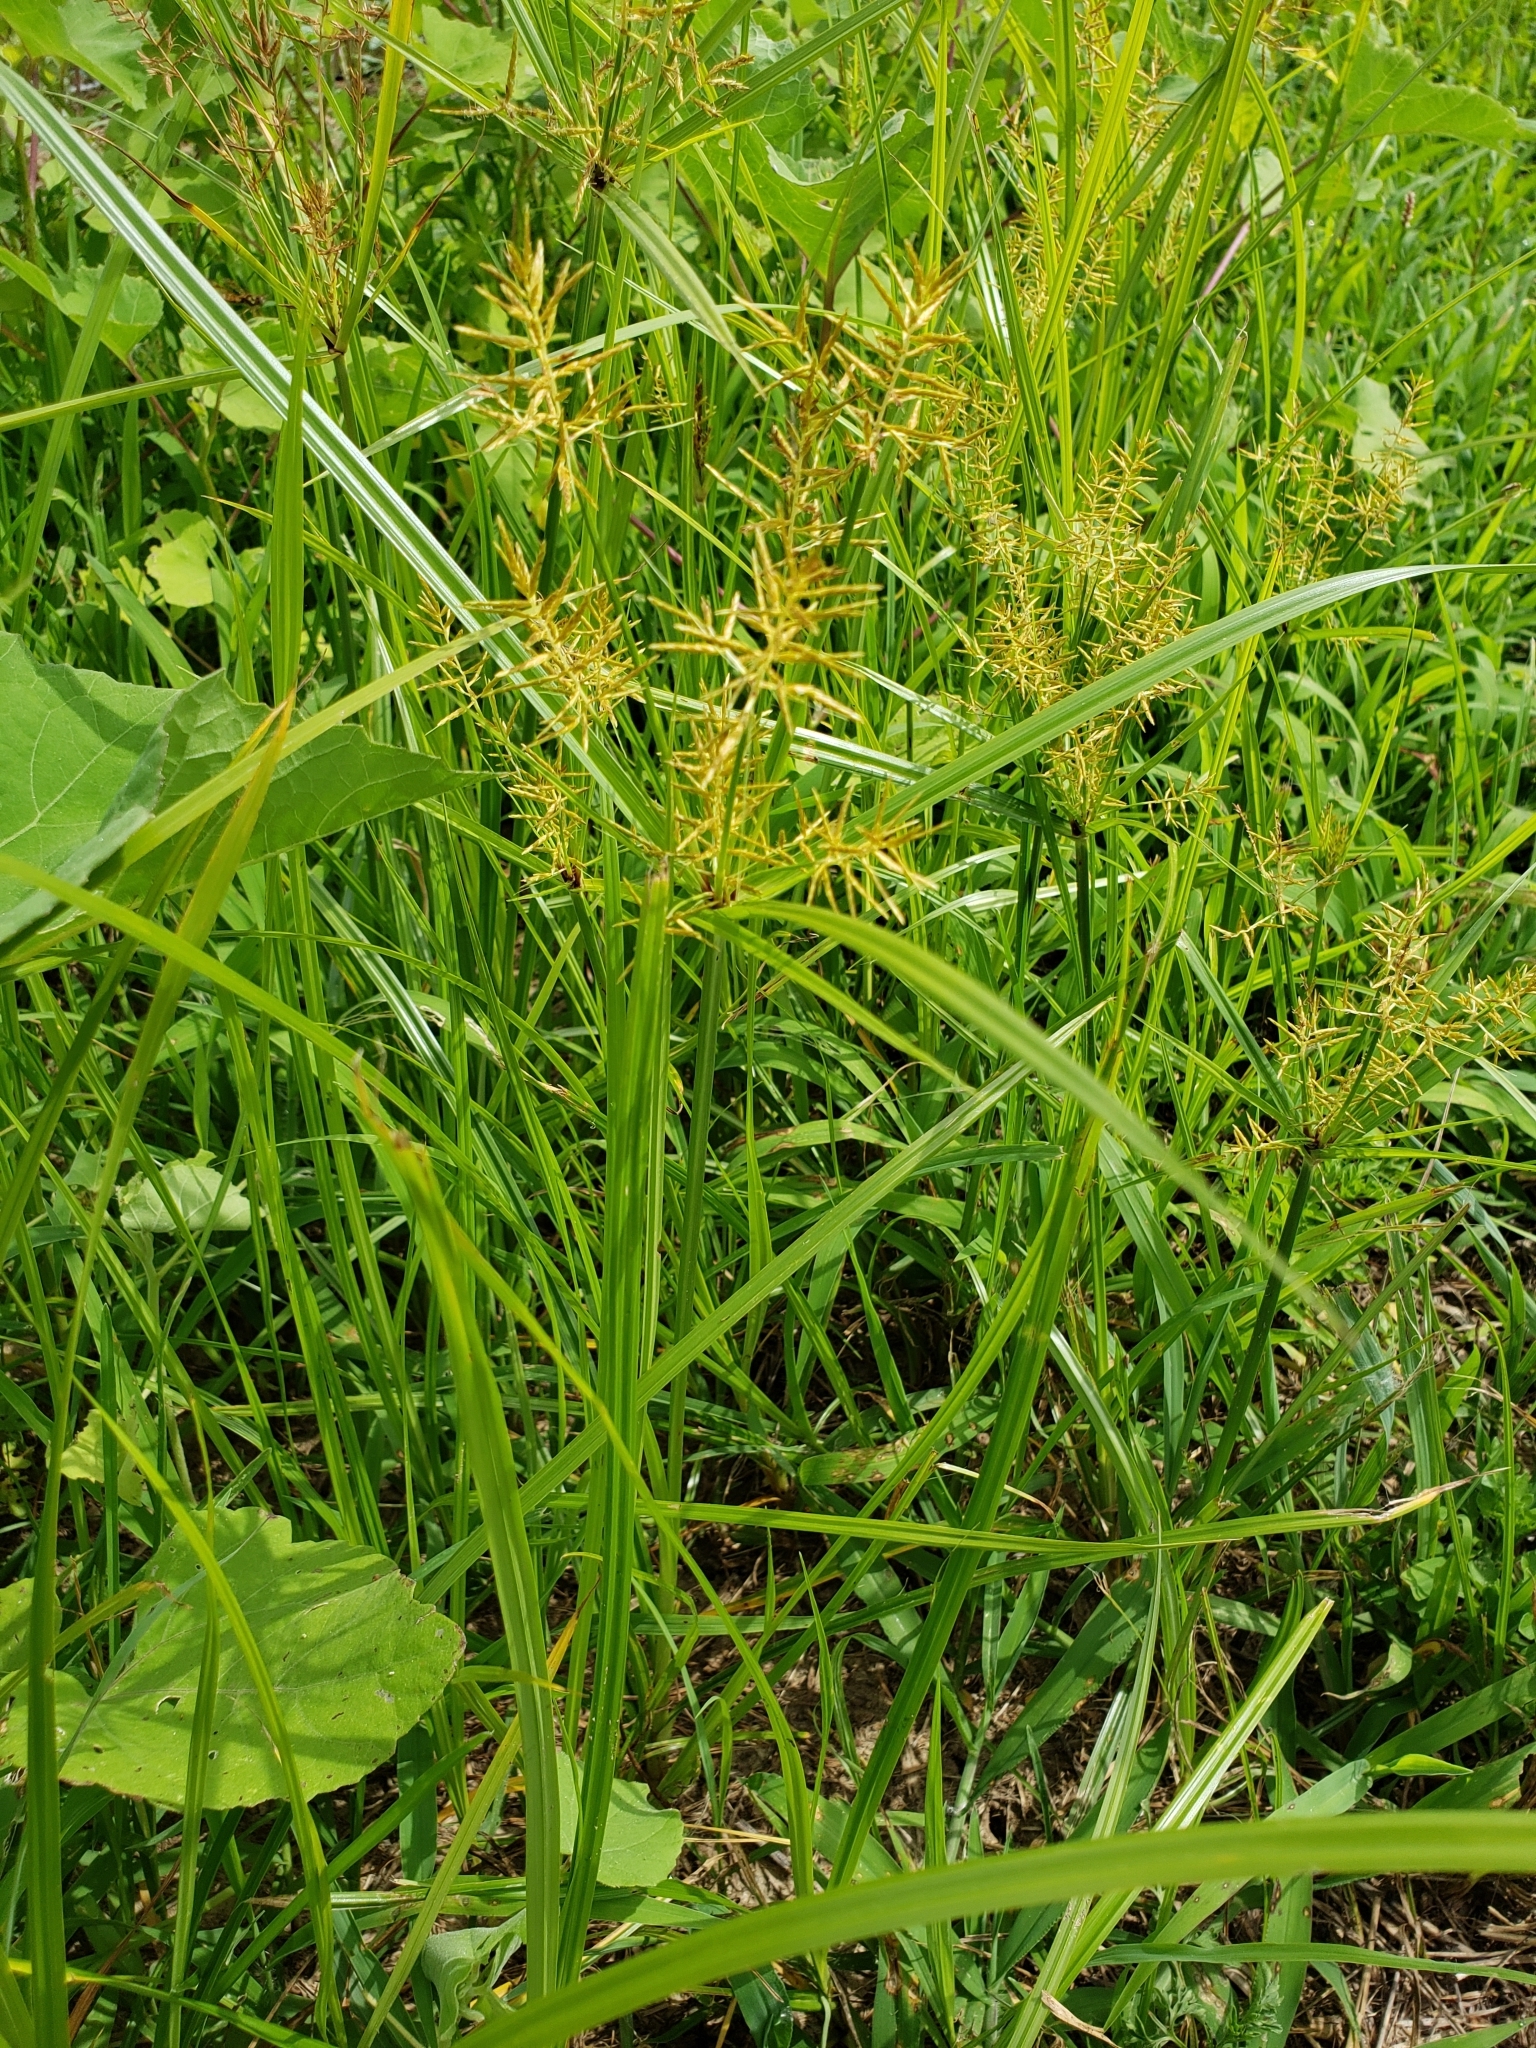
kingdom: Plantae
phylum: Tracheophyta
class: Liliopsida
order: Poales
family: Cyperaceae
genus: Cyperus
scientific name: Cyperus esculentus
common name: Yellow nutsedge
